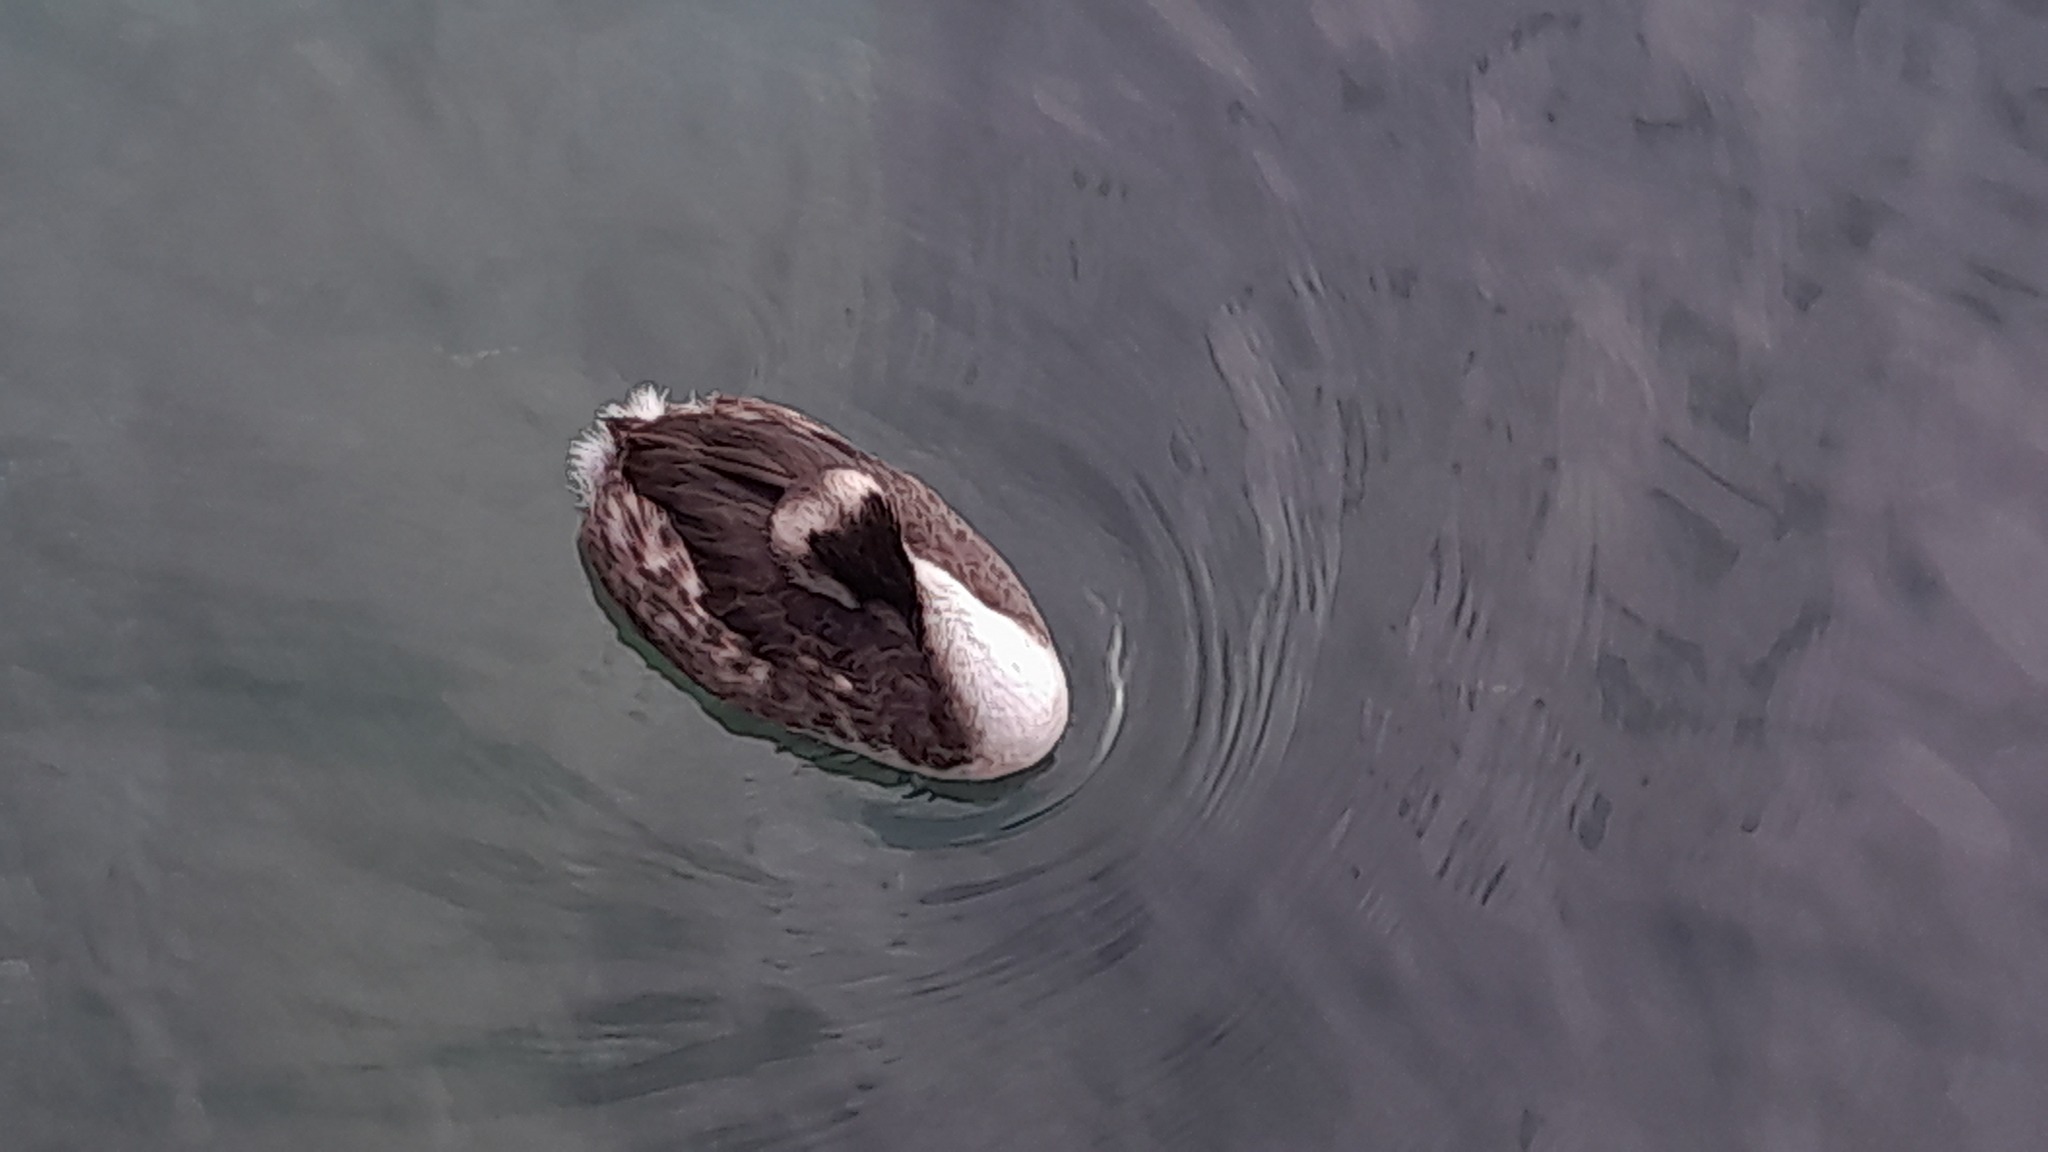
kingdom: Animalia
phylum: Chordata
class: Aves
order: Podicipediformes
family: Podicipedidae
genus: Podiceps
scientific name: Podiceps cristatus
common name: Great crested grebe
